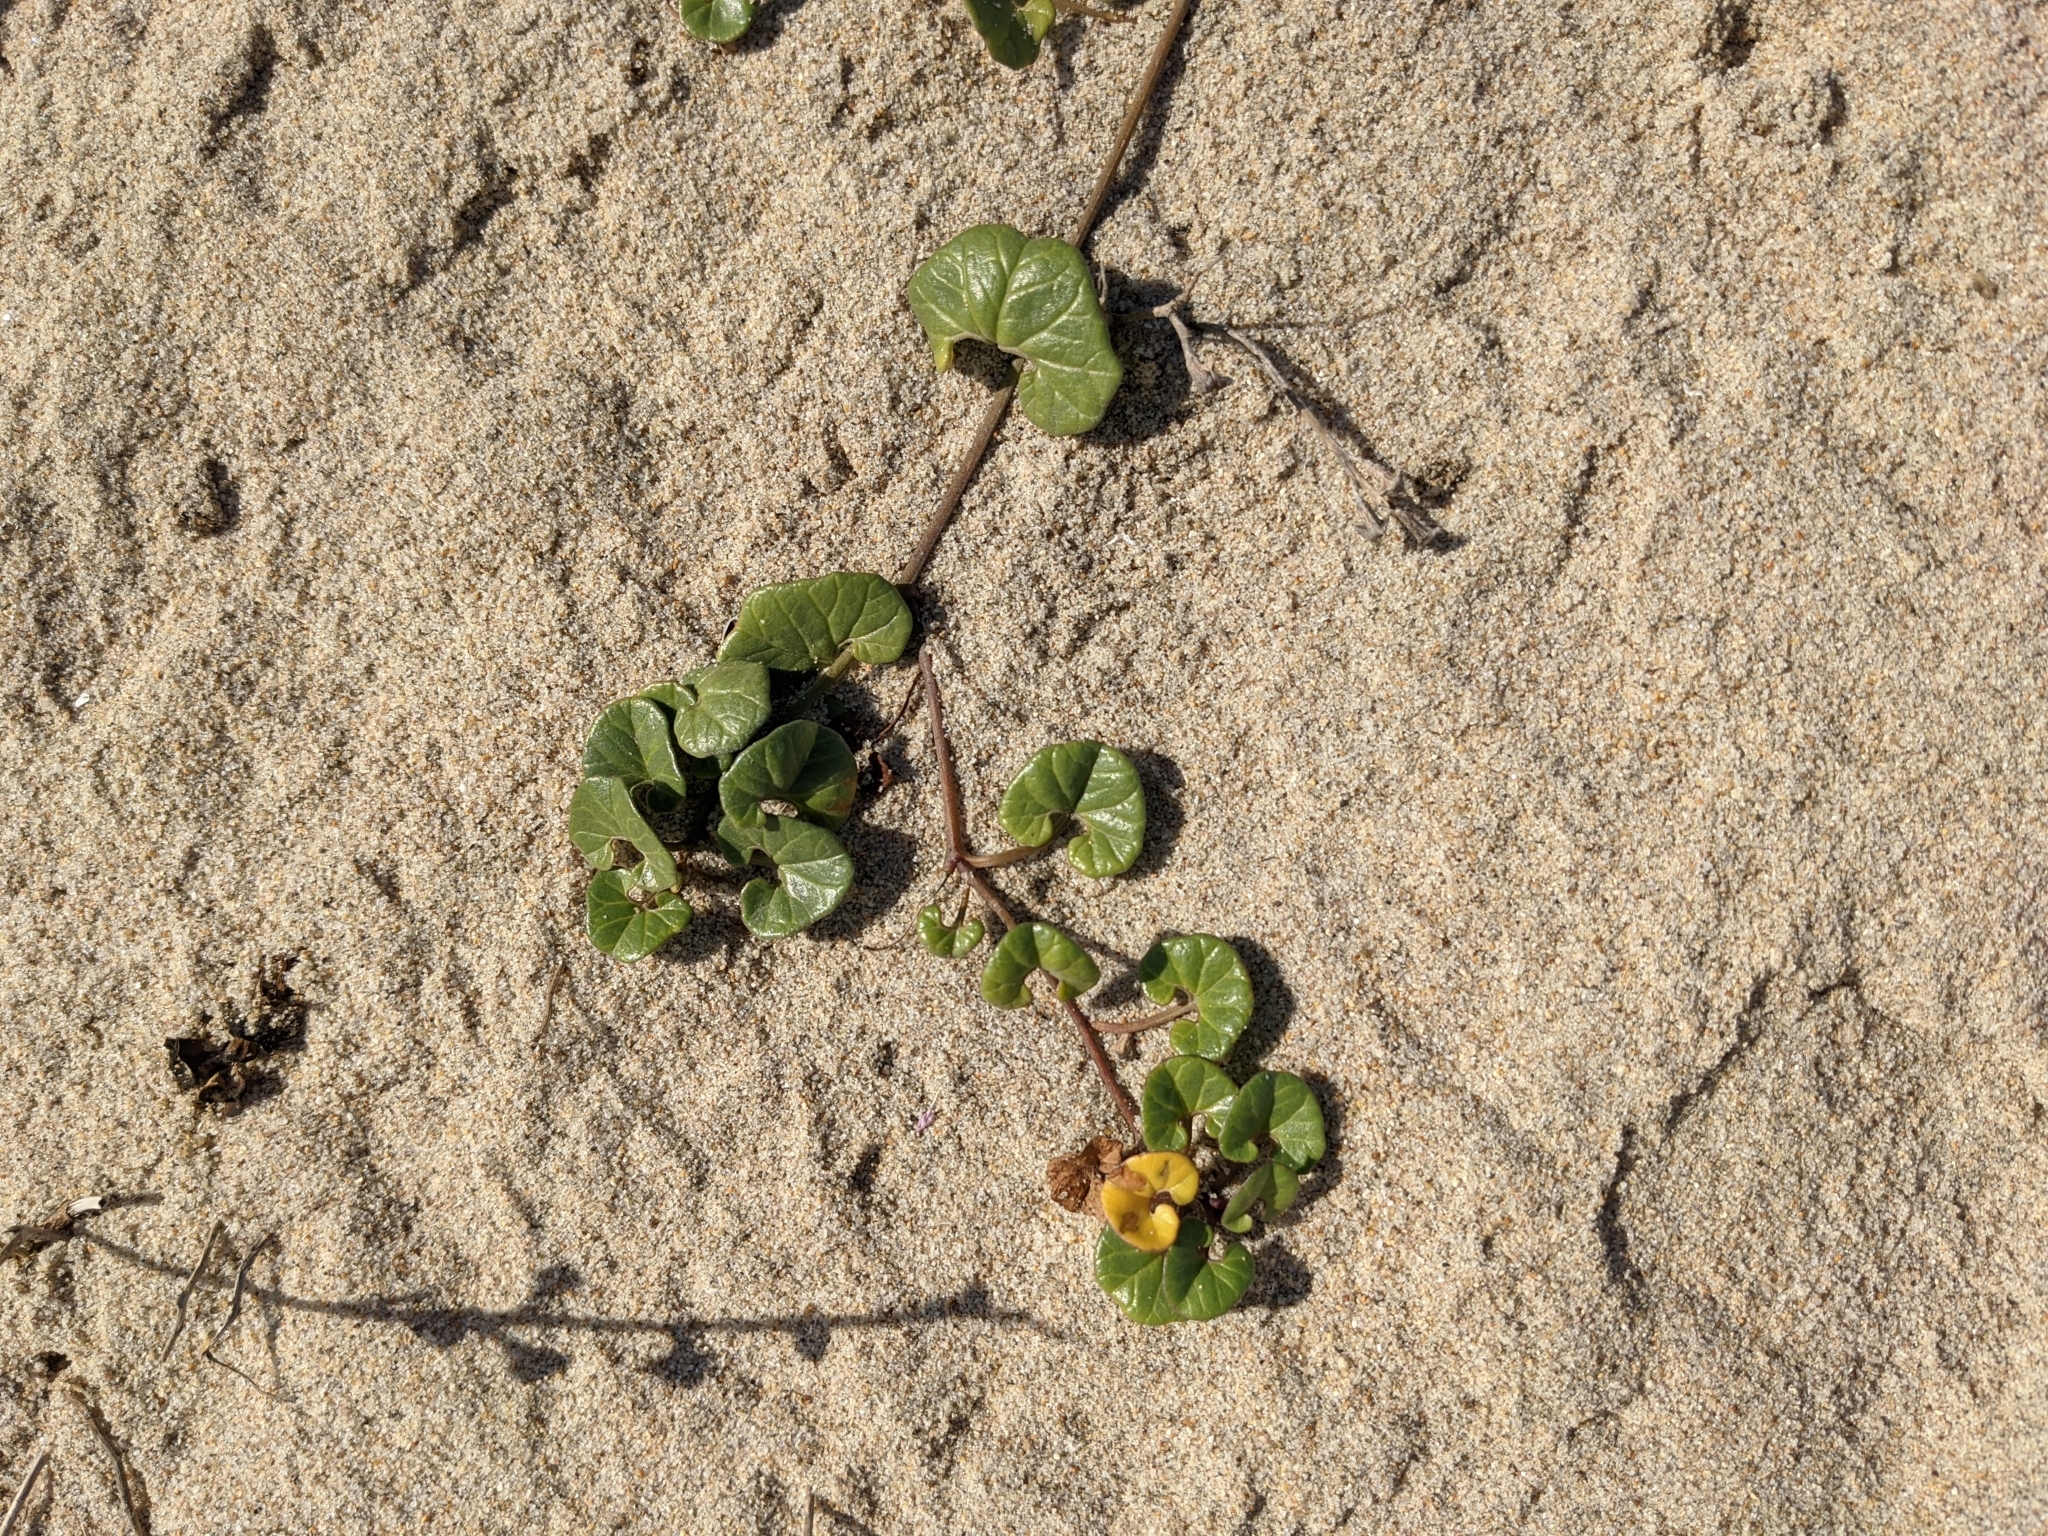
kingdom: Plantae
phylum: Tracheophyta
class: Magnoliopsida
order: Solanales
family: Convolvulaceae
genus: Calystegia
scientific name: Calystegia soldanella
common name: Sea bindweed
